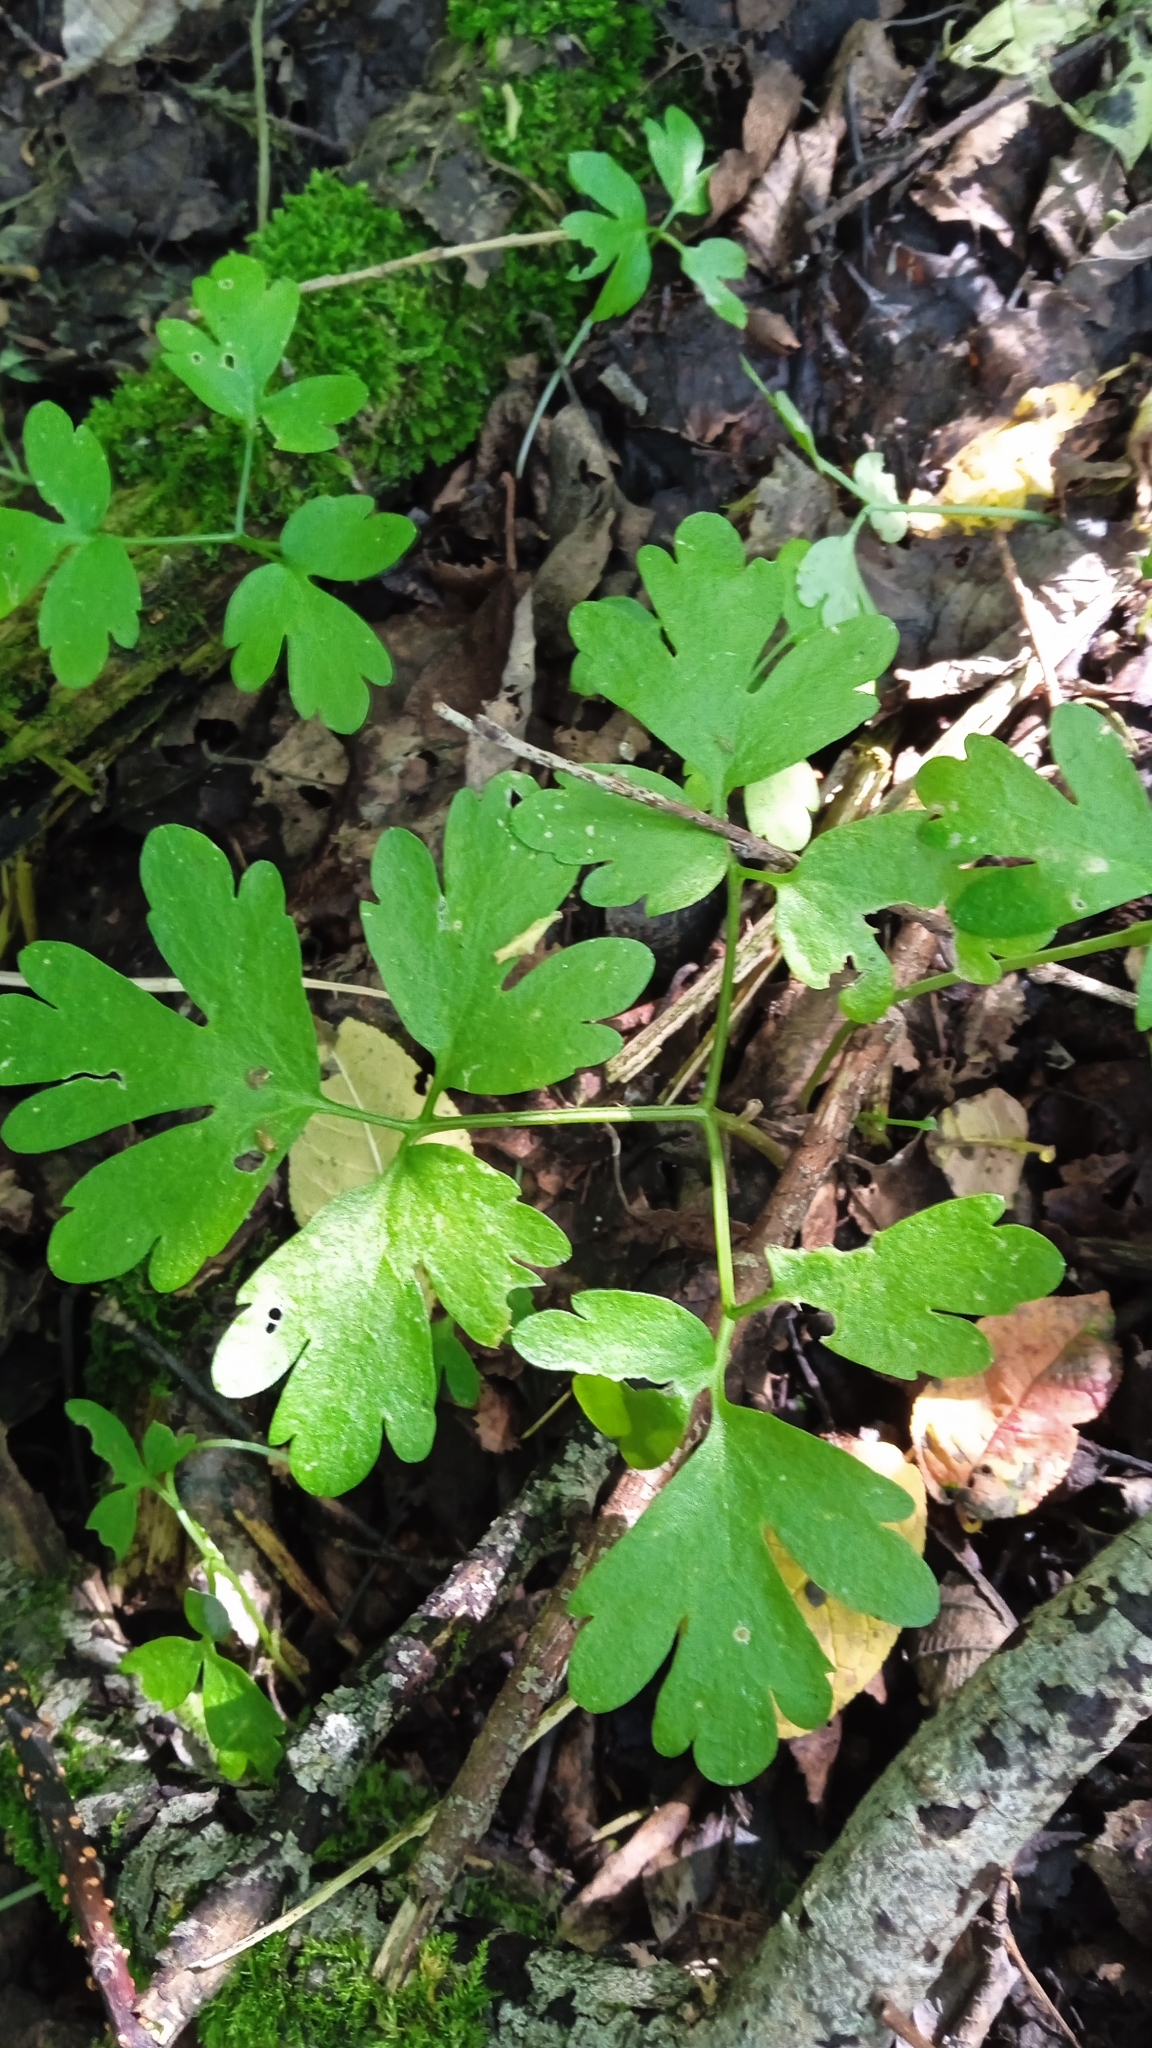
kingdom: Plantae
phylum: Tracheophyta
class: Magnoliopsida
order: Dipsacales
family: Viburnaceae
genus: Adoxa
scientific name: Adoxa moschatellina
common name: Moschatel
